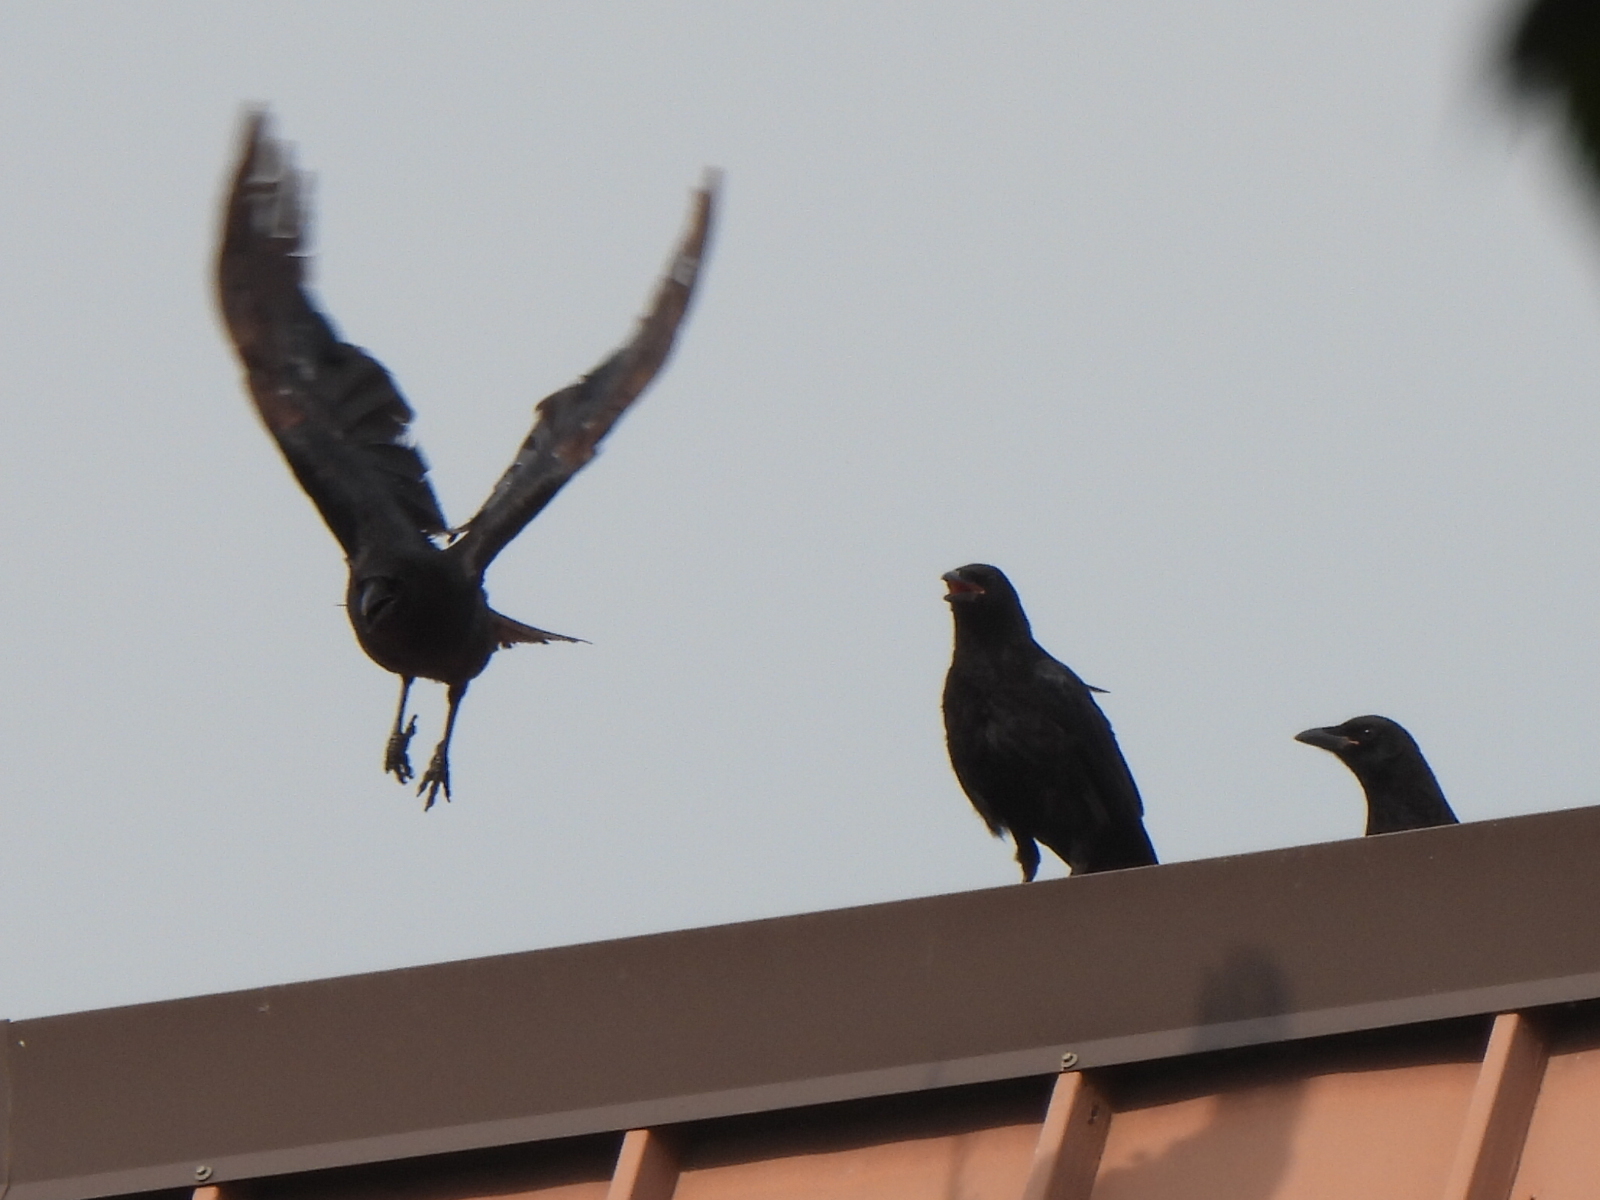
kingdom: Animalia
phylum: Chordata
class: Aves
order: Passeriformes
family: Corvidae
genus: Corvus
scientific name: Corvus brachyrhynchos
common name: American crow
